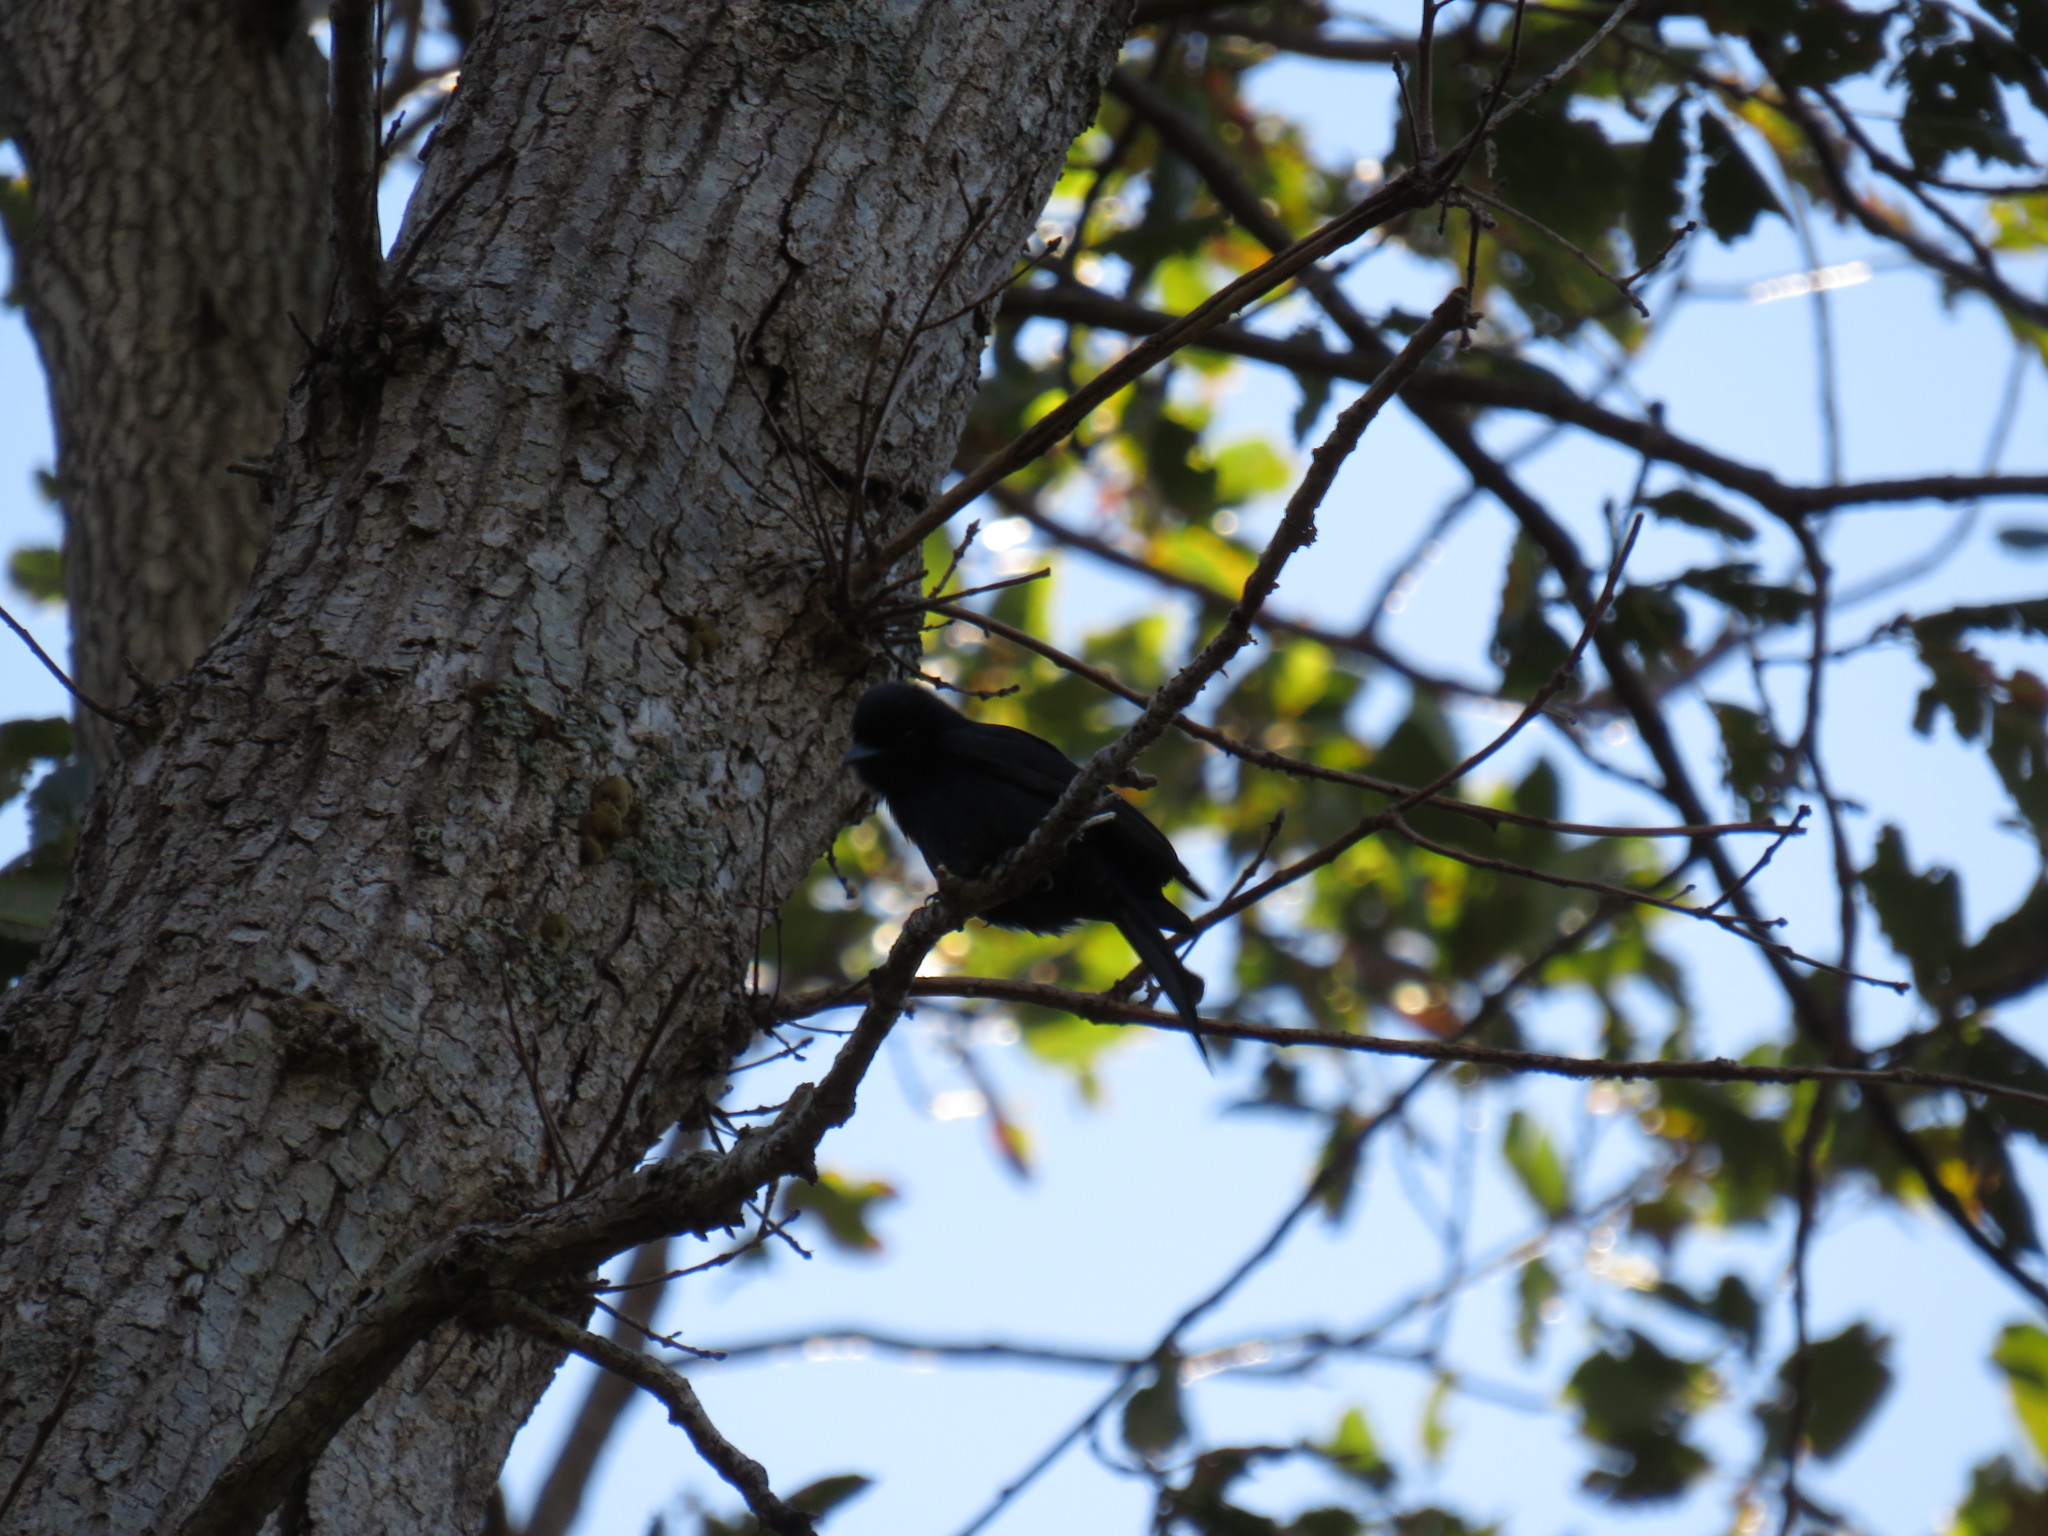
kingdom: Animalia
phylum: Chordata
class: Aves
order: Passeriformes
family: Dicruridae
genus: Dicrurus
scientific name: Dicrurus adsimilis
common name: Fork-tailed drongo
